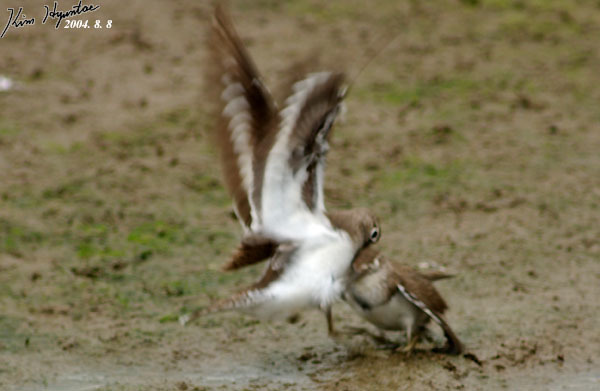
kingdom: Animalia
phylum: Chordata
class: Aves
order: Charadriiformes
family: Scolopacidae
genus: Actitis
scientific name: Actitis hypoleucos
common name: Common sandpiper
